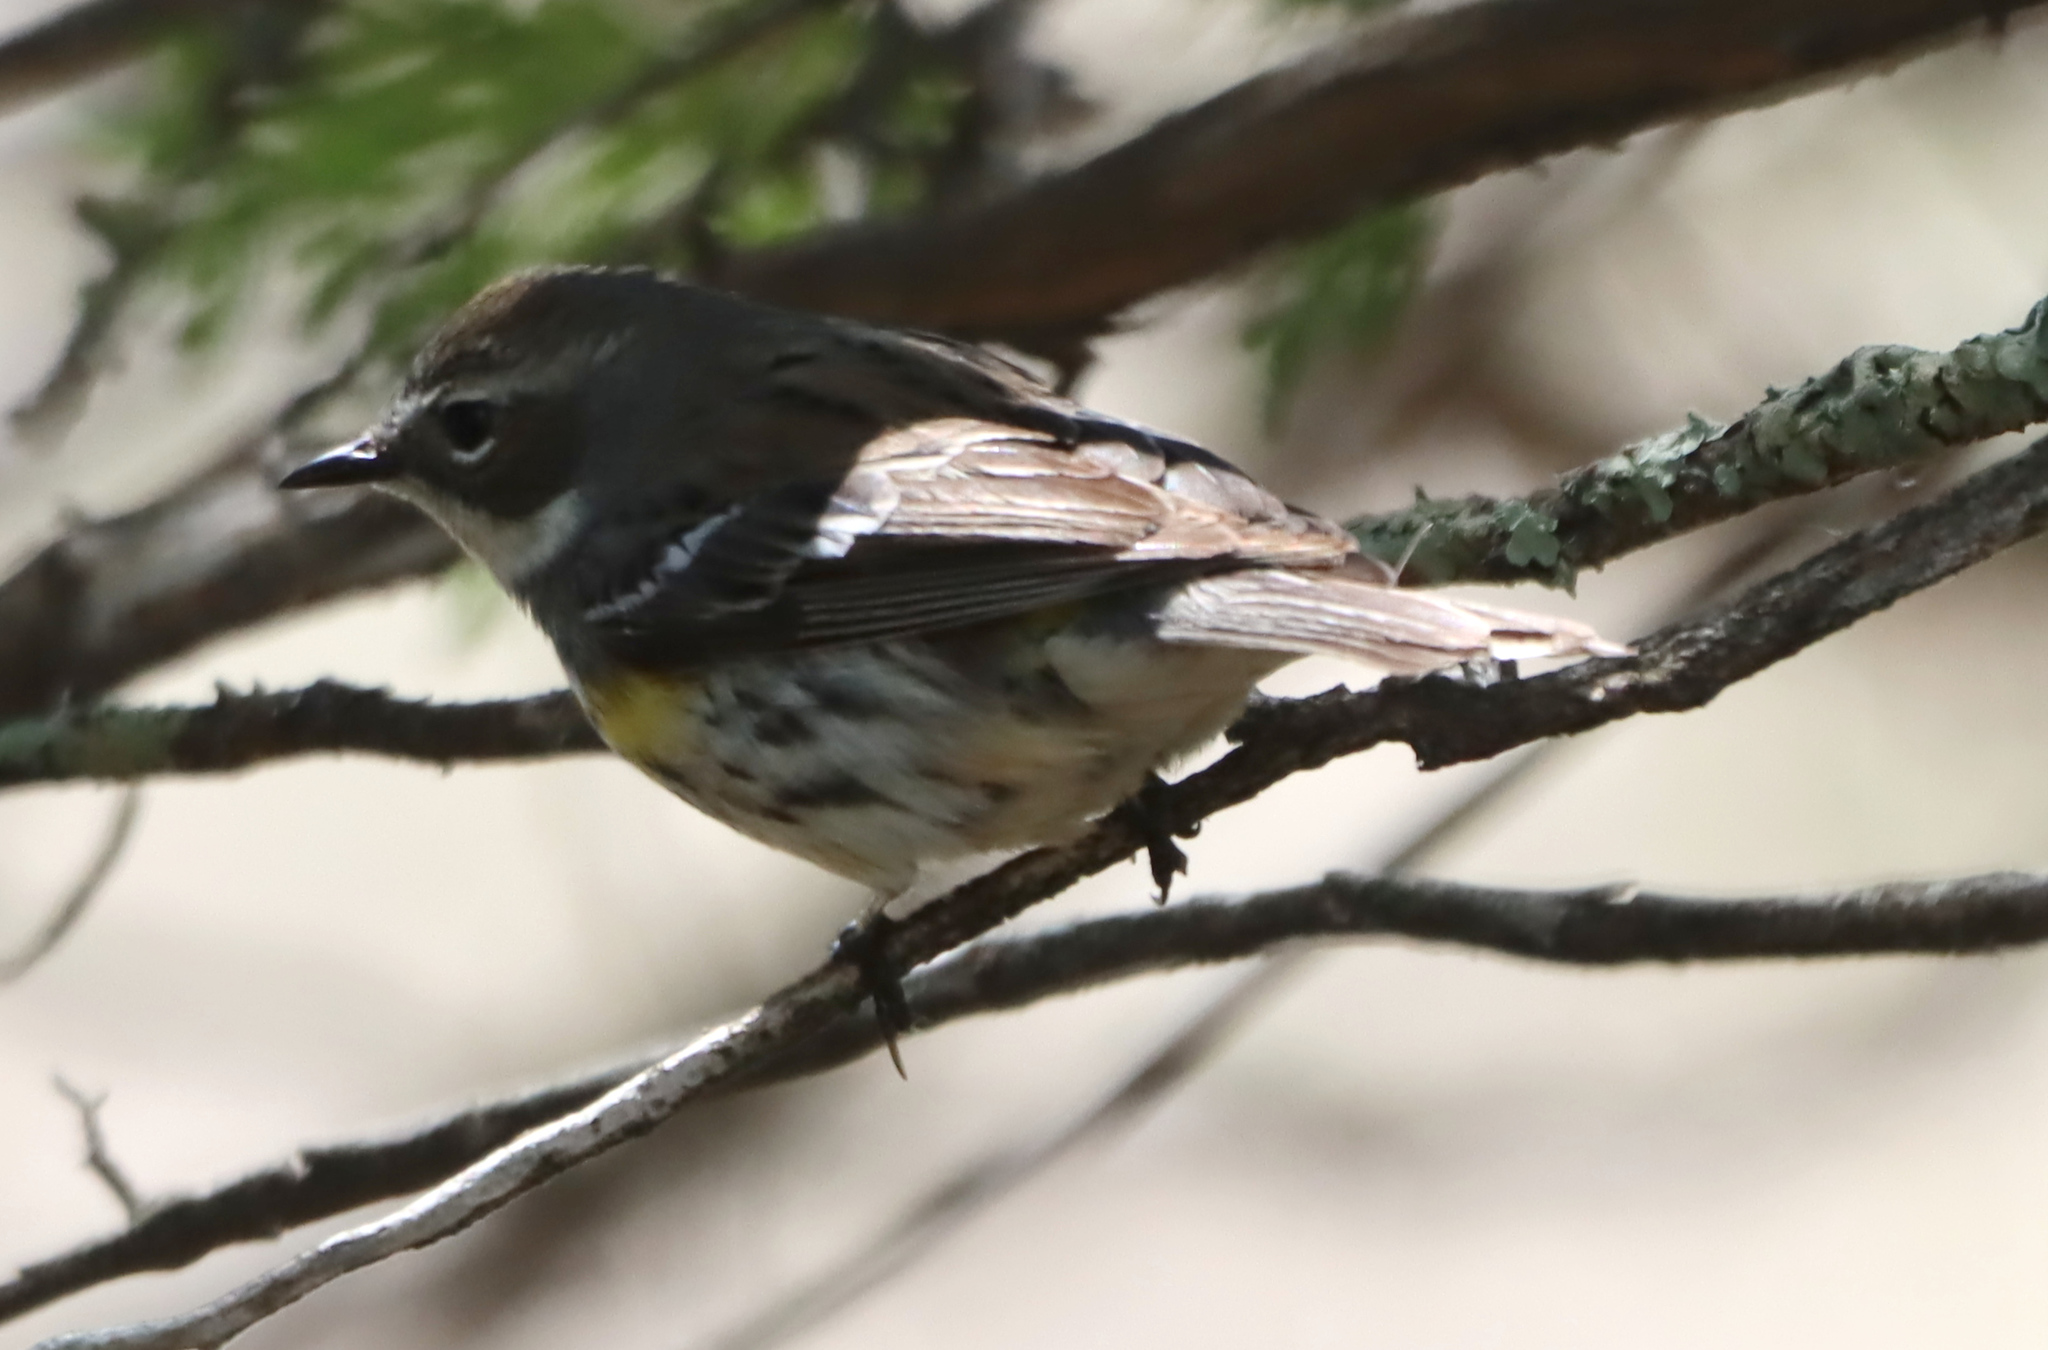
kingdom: Animalia
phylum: Chordata
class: Aves
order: Passeriformes
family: Parulidae
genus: Setophaga
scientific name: Setophaga coronata
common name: Myrtle warbler
